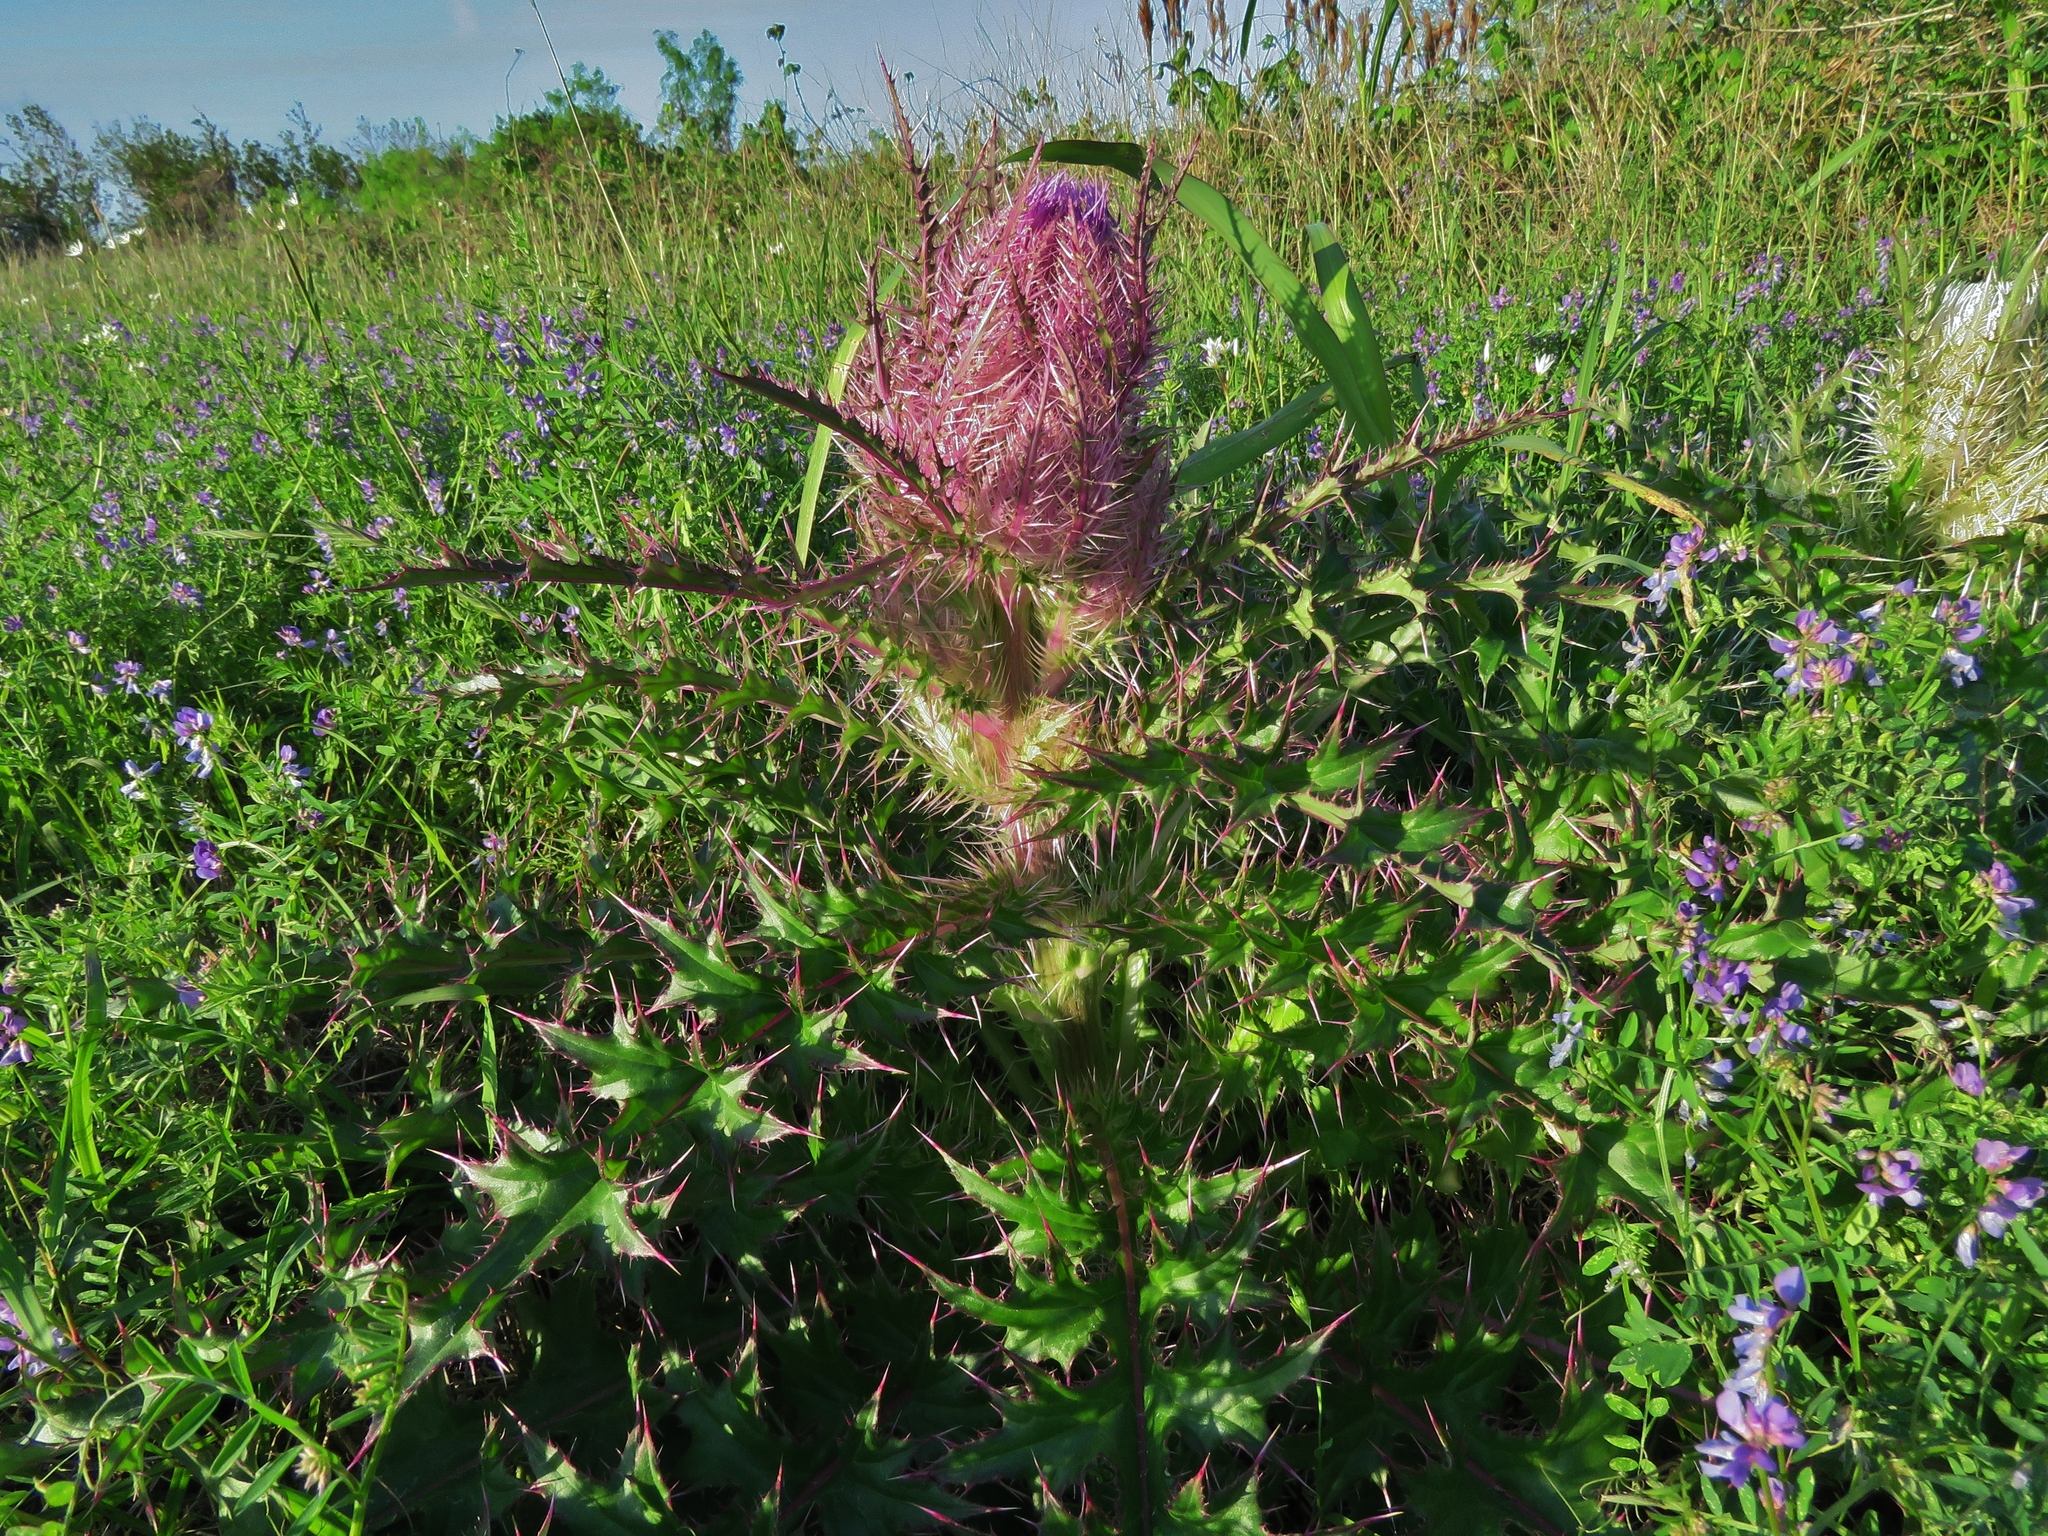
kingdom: Plantae
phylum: Tracheophyta
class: Magnoliopsida
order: Asterales
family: Asteraceae
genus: Cirsium
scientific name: Cirsium horridulum
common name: Bristly thistle
